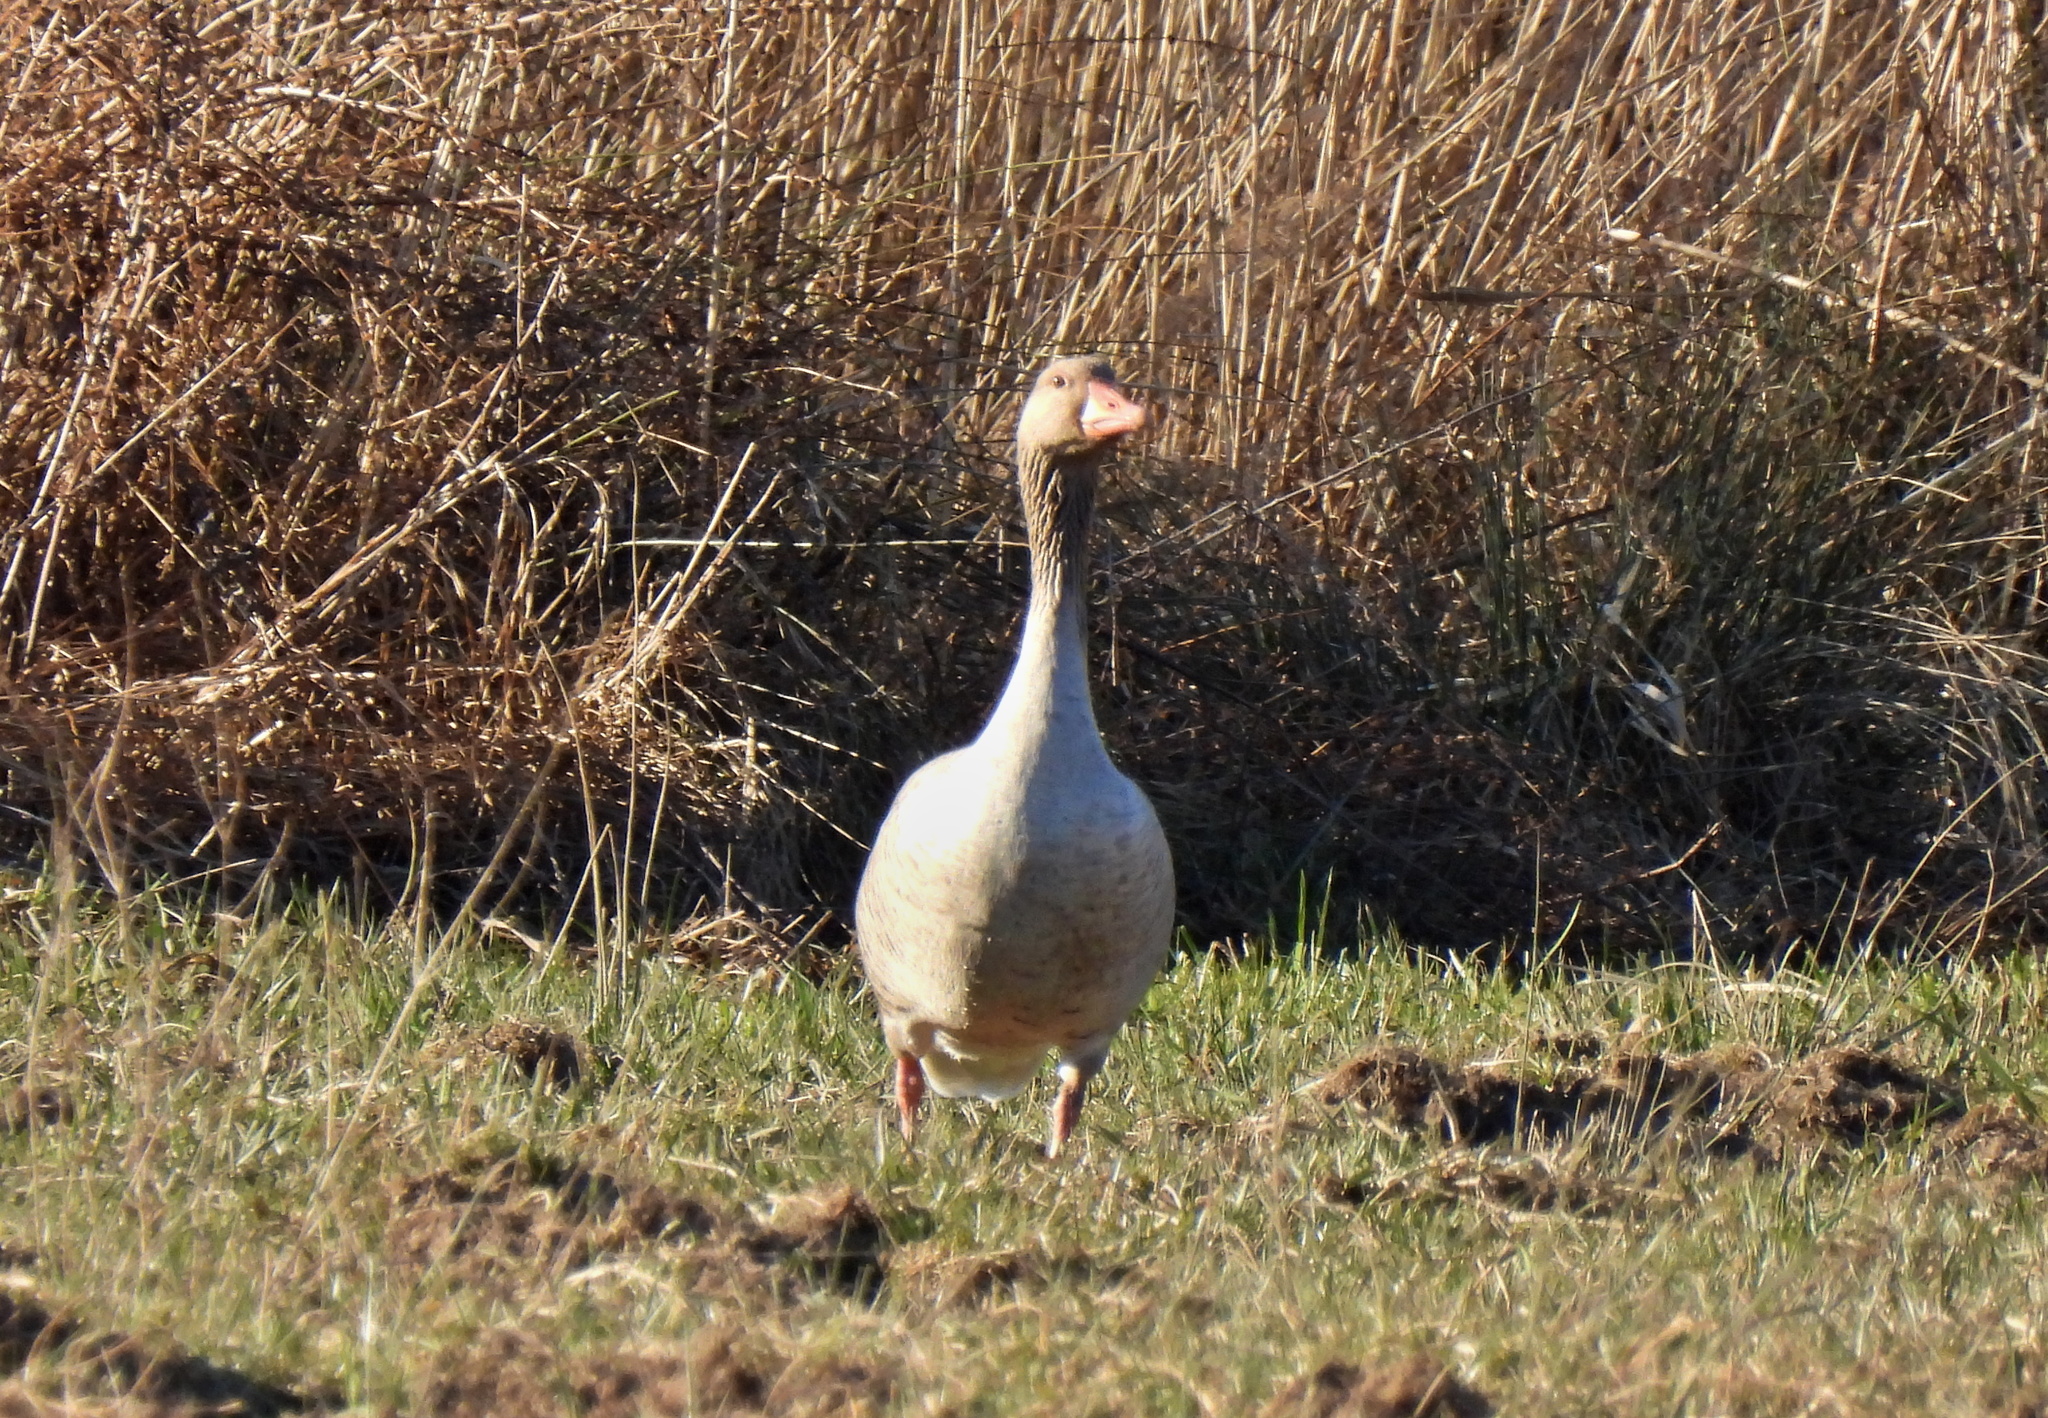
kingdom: Animalia
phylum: Chordata
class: Aves
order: Anseriformes
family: Anatidae
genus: Anser
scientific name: Anser anser
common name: Greylag goose
